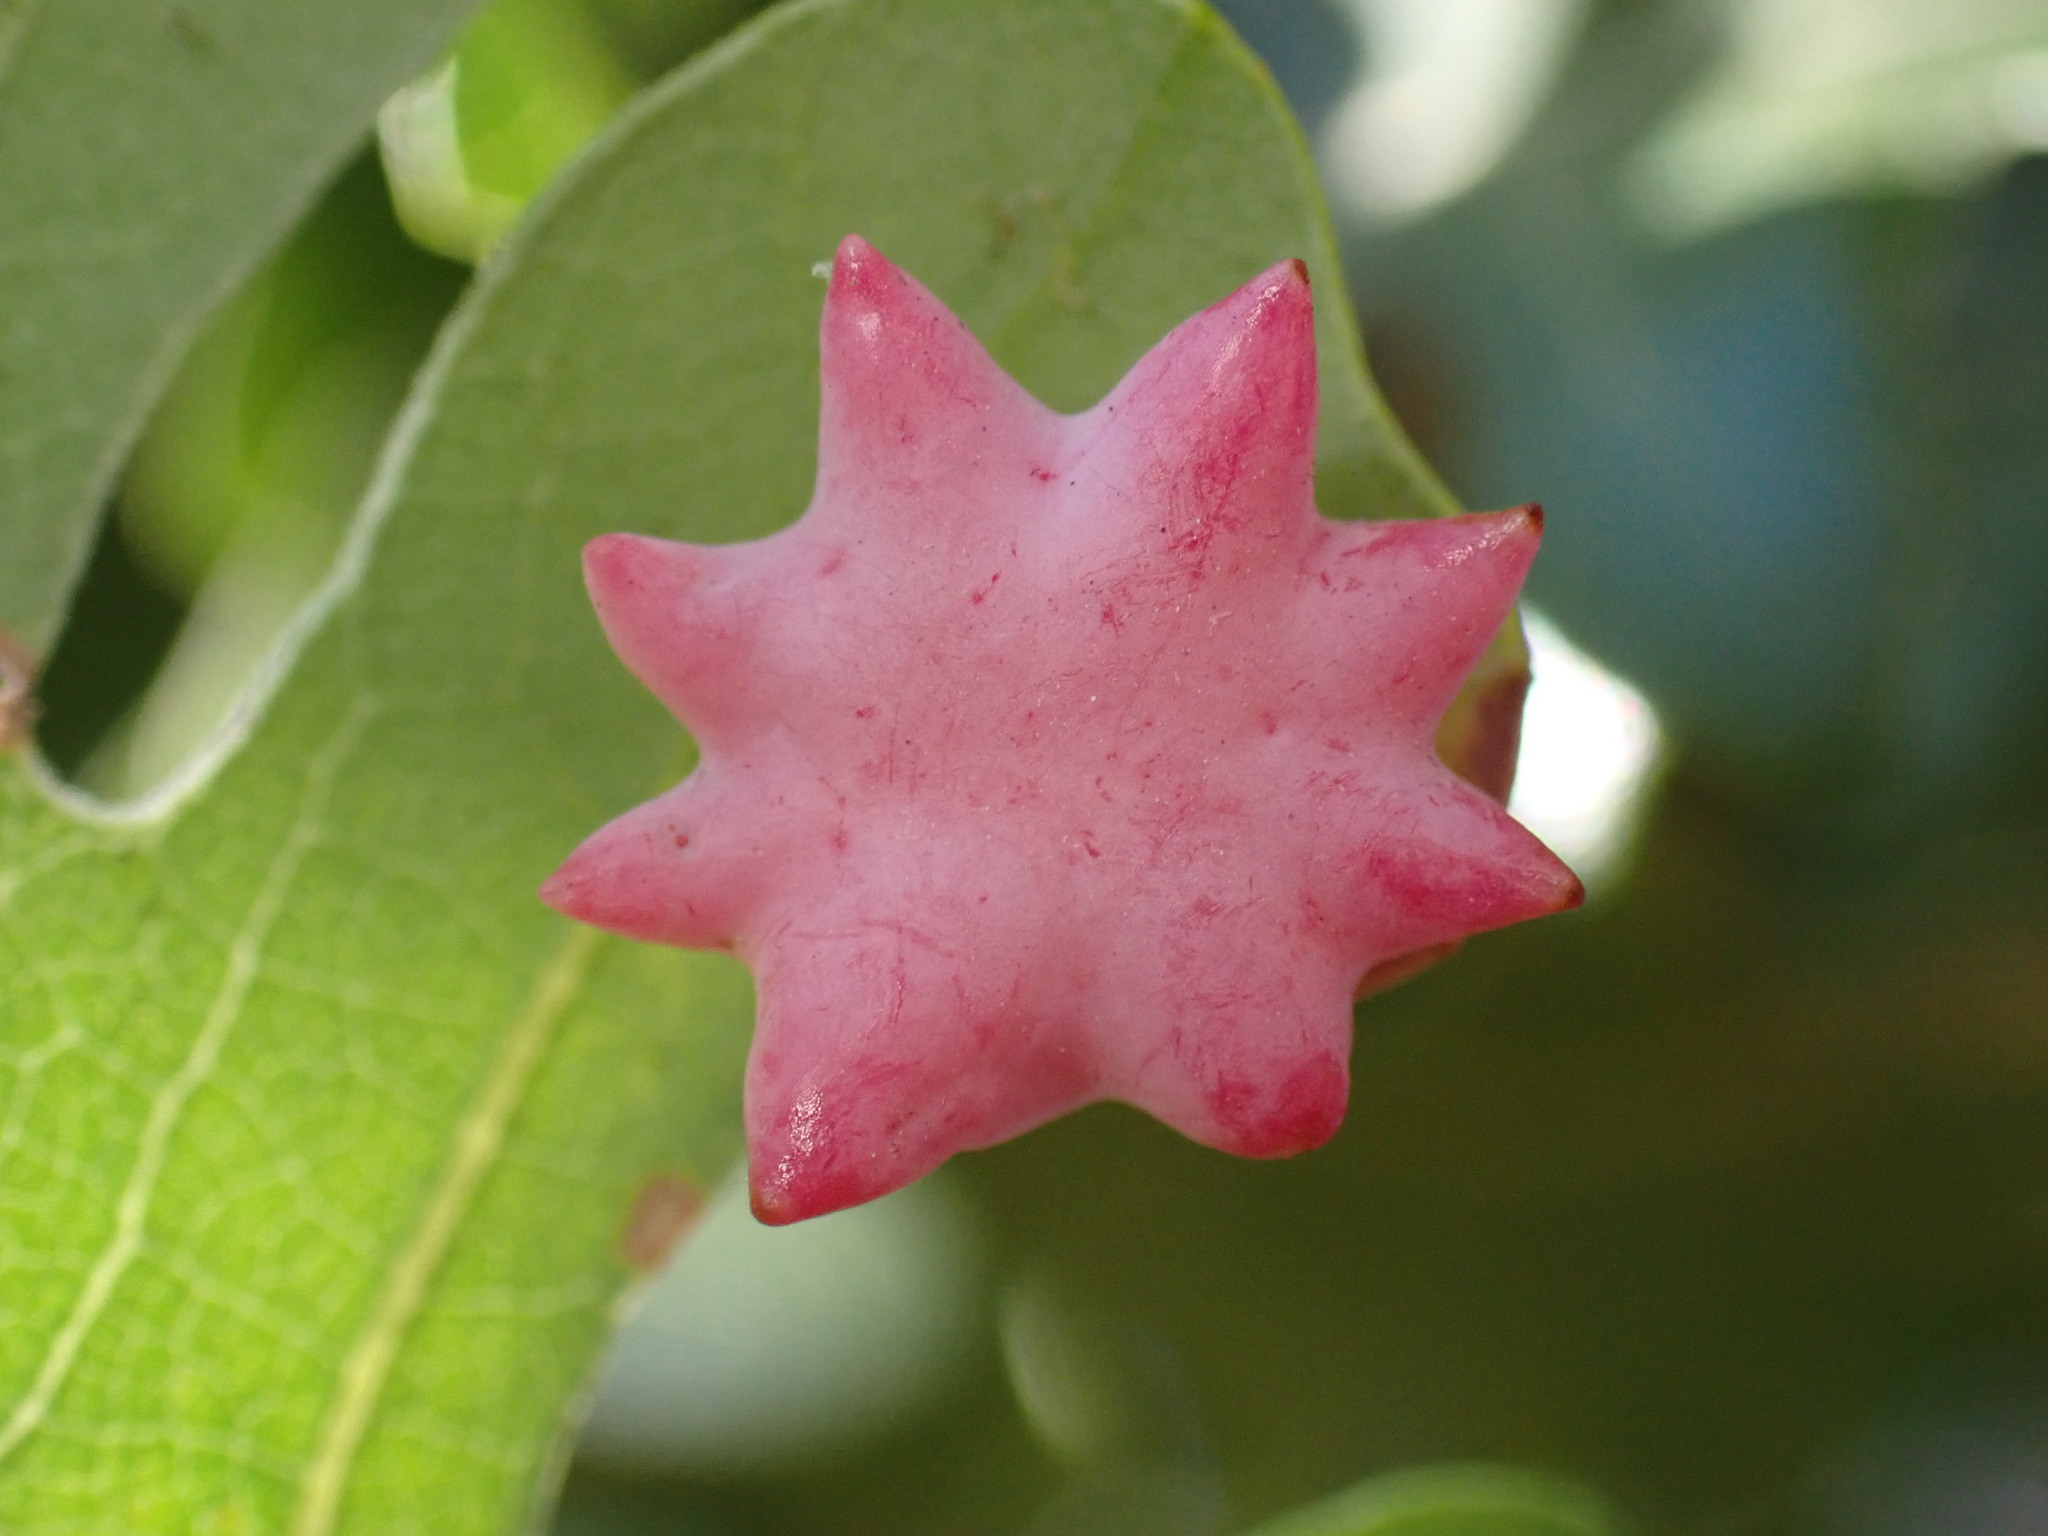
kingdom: Animalia
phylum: Arthropoda
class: Insecta
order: Hymenoptera
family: Cynipidae
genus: Cynips
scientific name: Cynips douglasi
